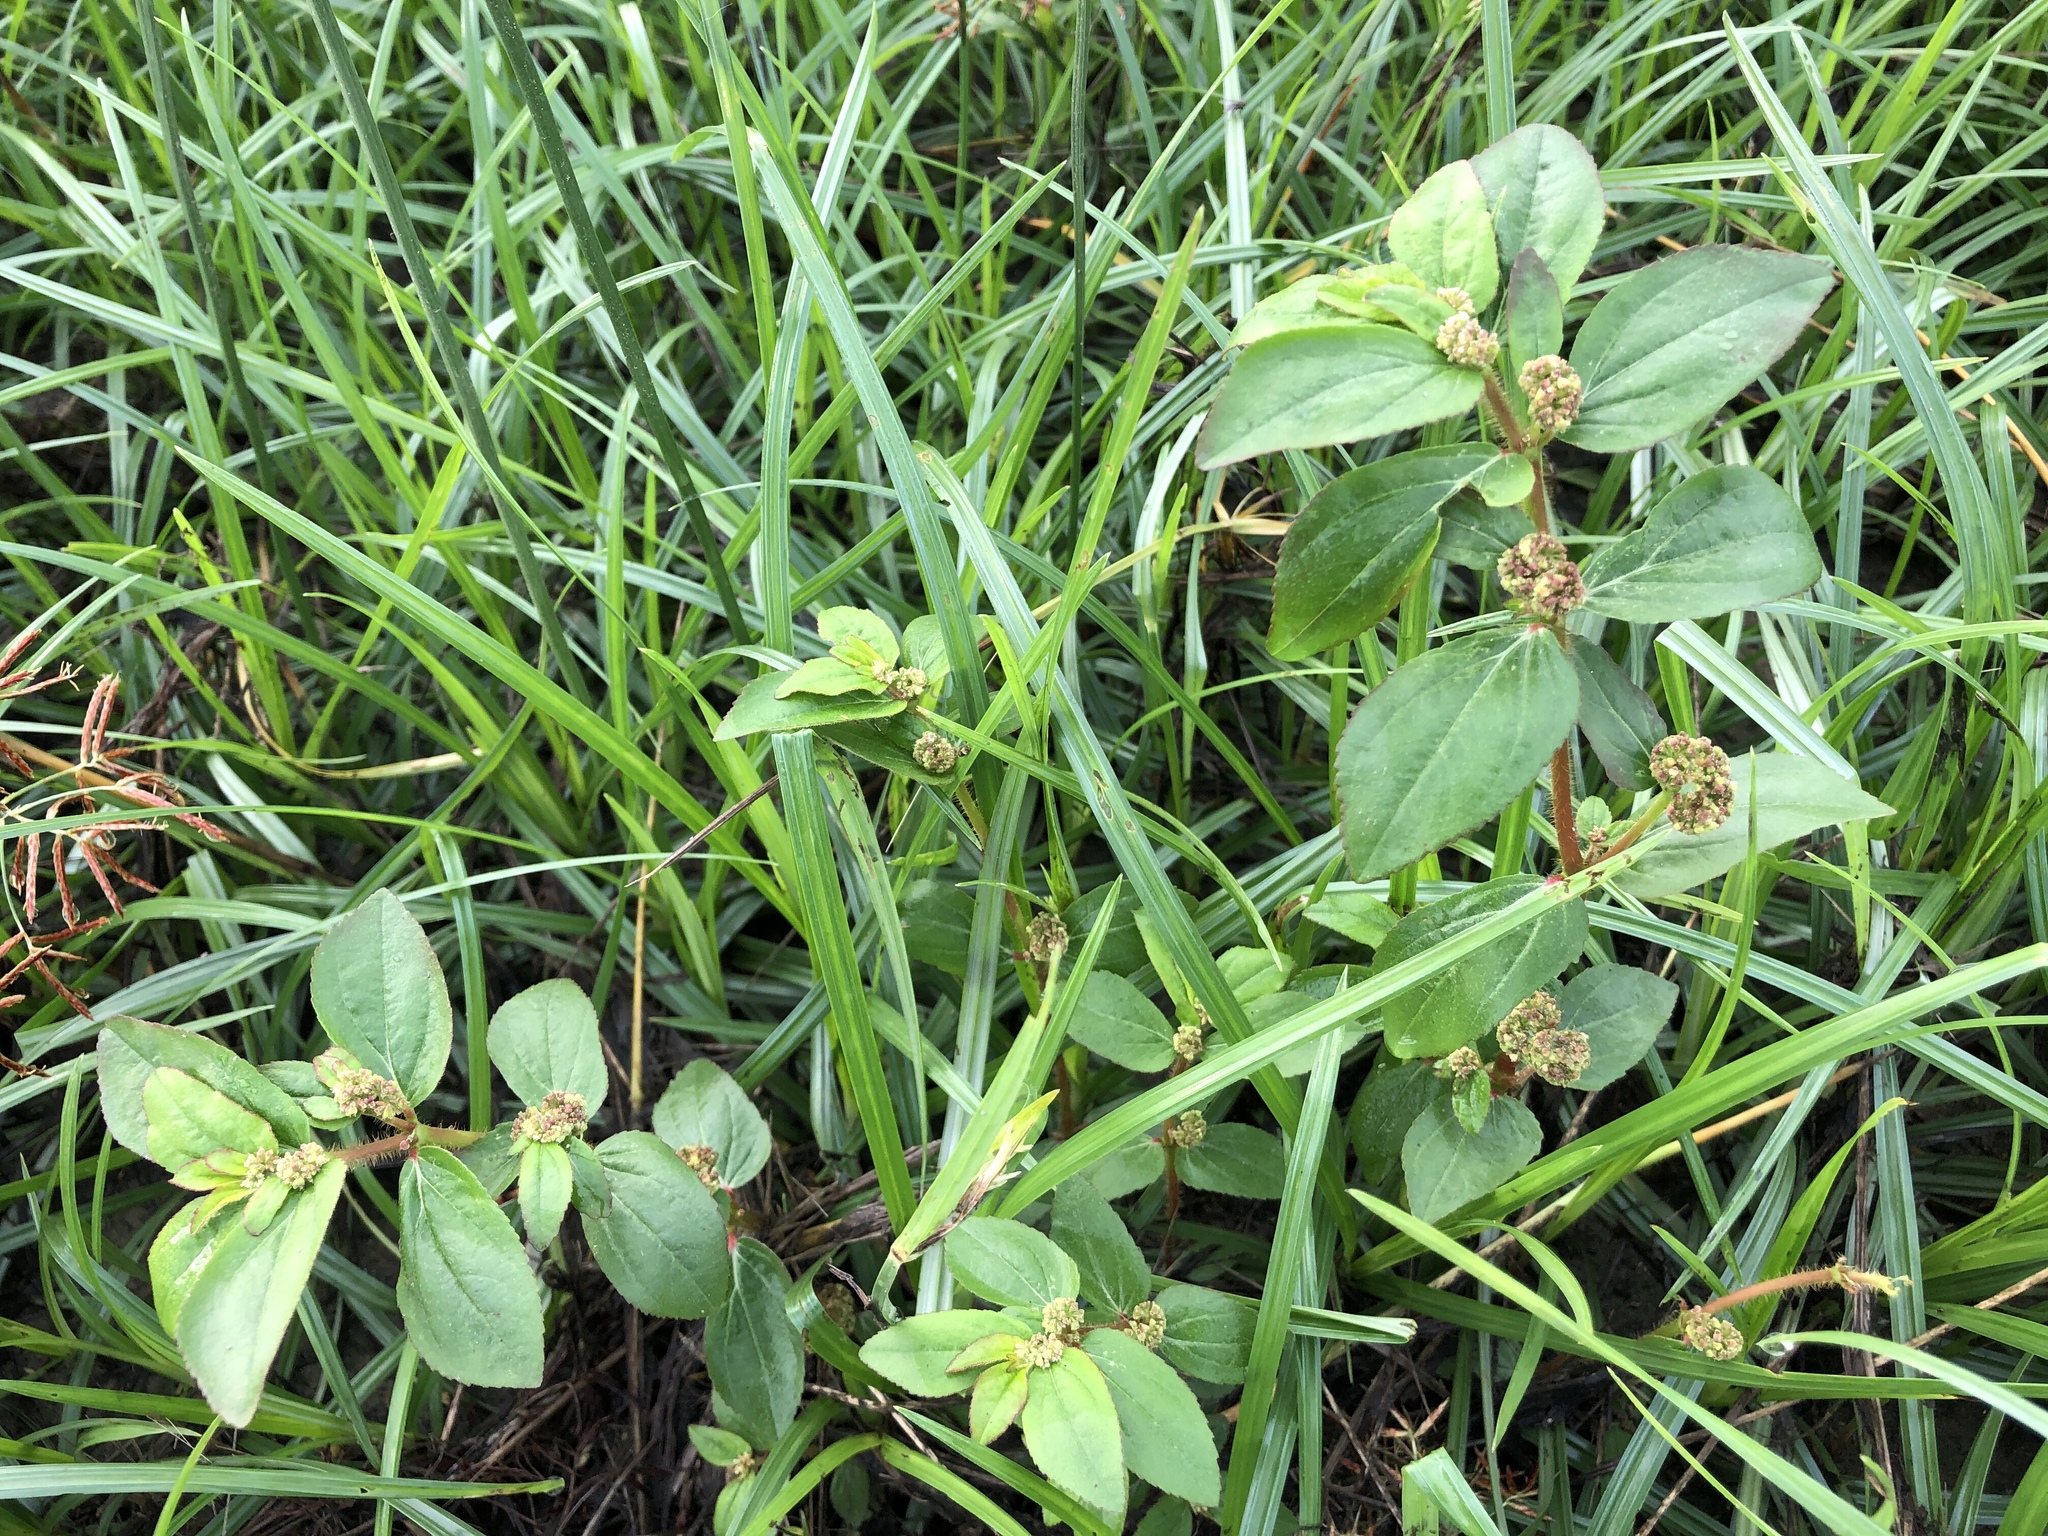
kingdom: Plantae
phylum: Tracheophyta
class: Magnoliopsida
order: Malpighiales
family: Euphorbiaceae
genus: Euphorbia
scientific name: Euphorbia hirta
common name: Pillpod sandmat
